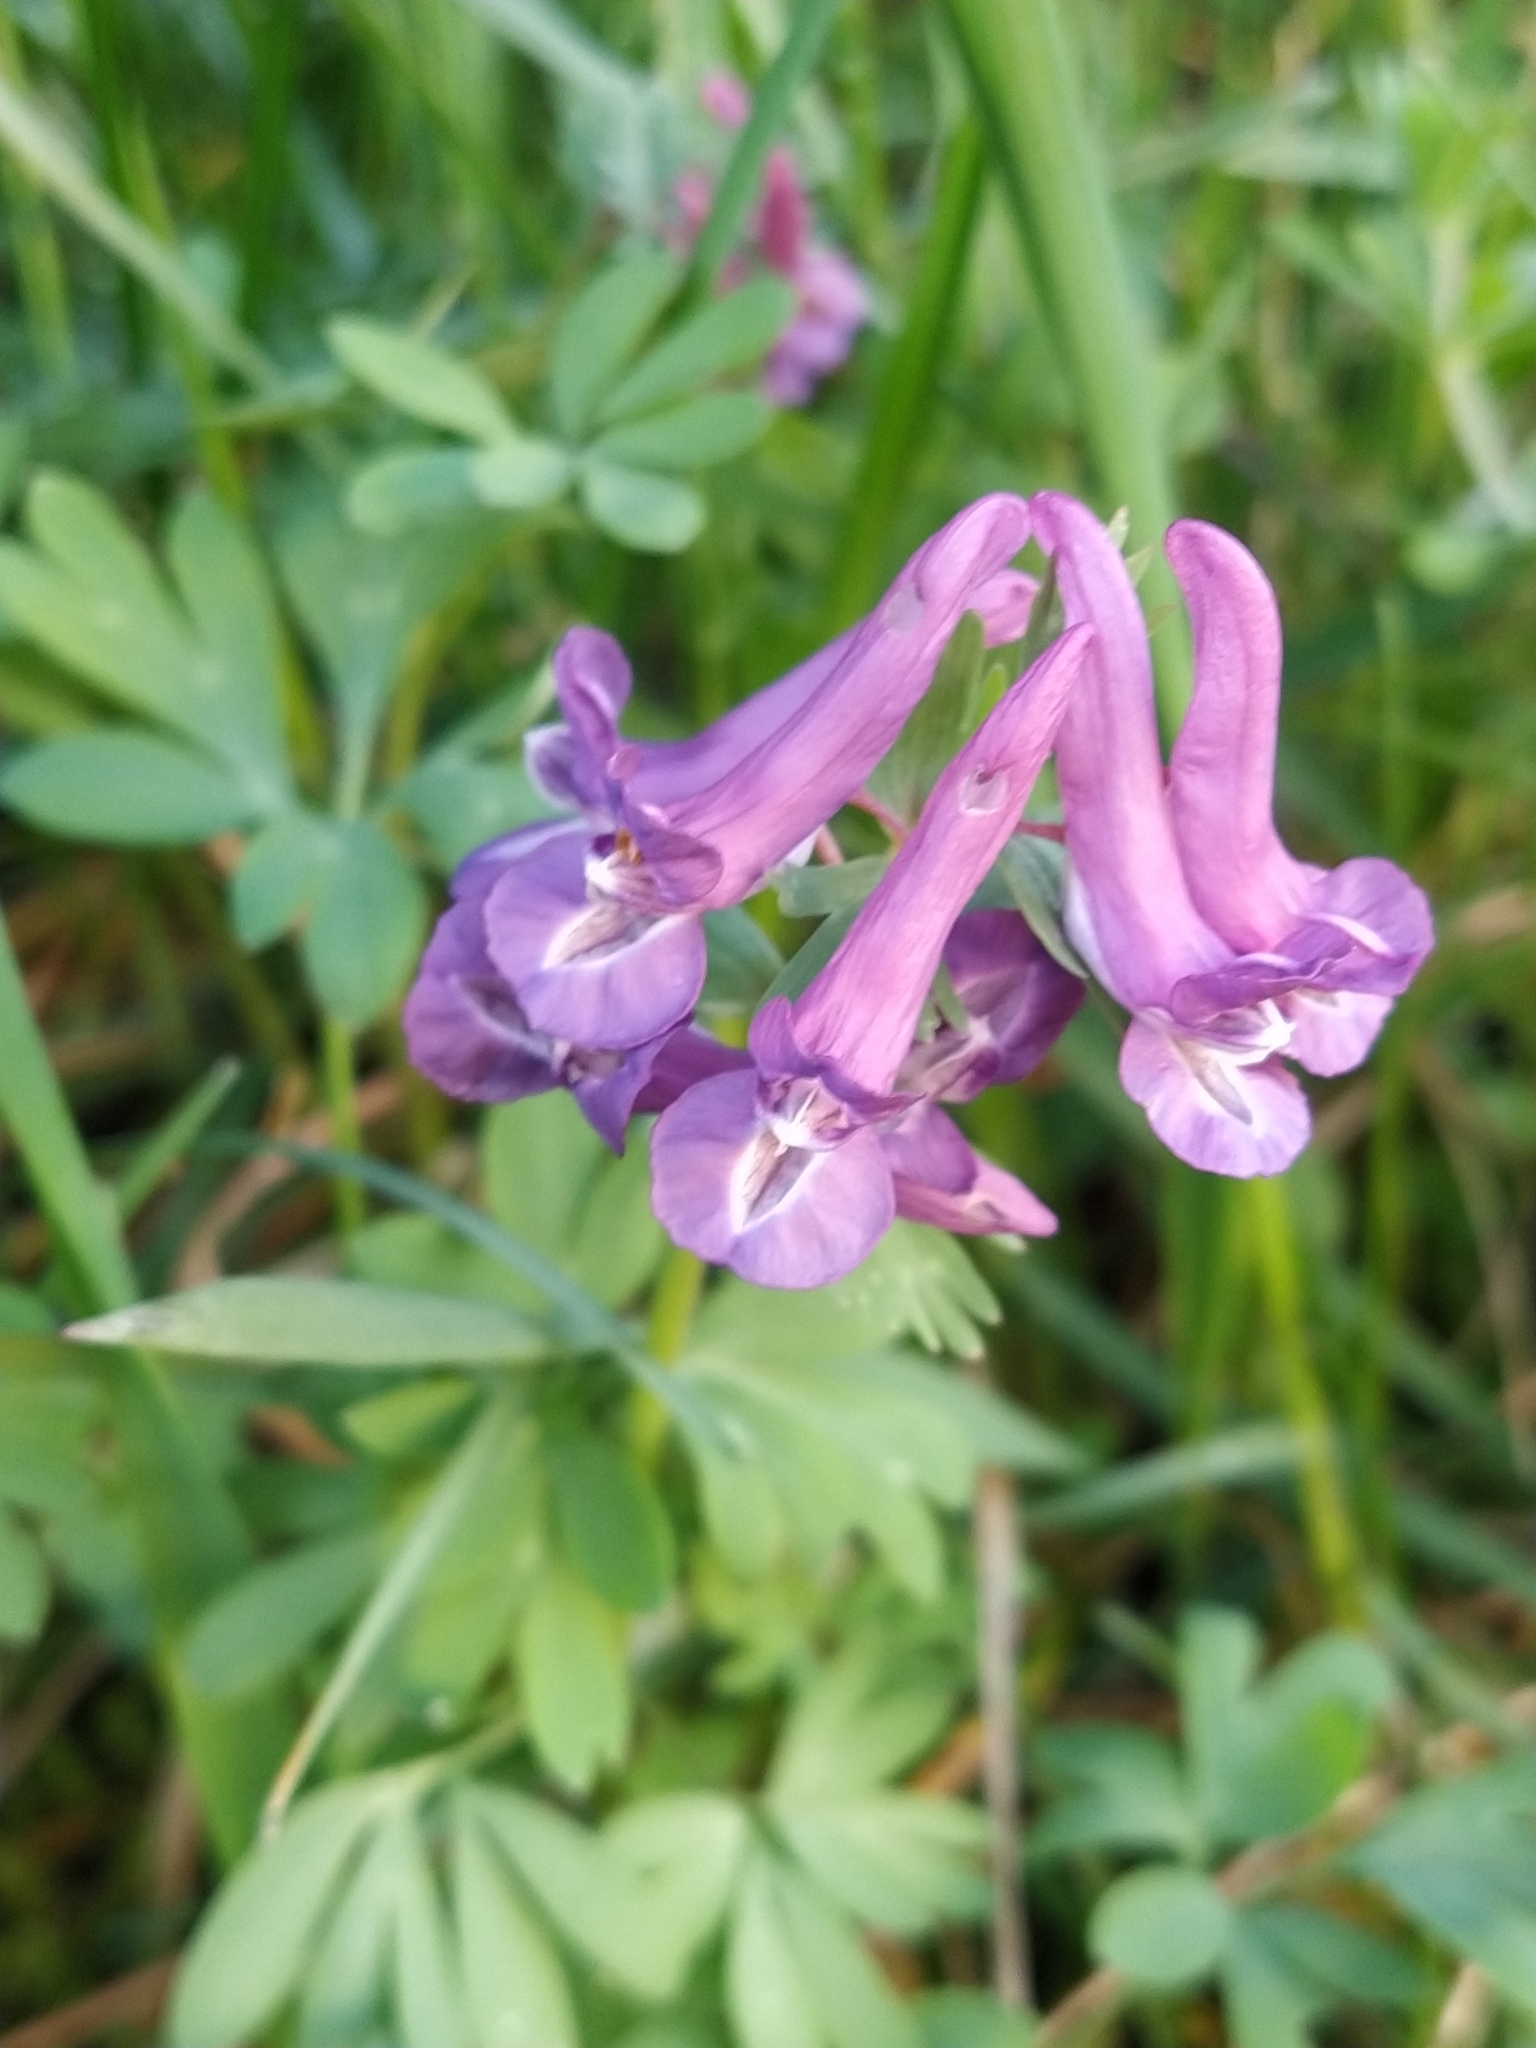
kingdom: Plantae
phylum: Tracheophyta
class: Magnoliopsida
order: Ranunculales
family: Papaveraceae
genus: Corydalis
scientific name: Corydalis solida
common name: Bird-in-a-bush
